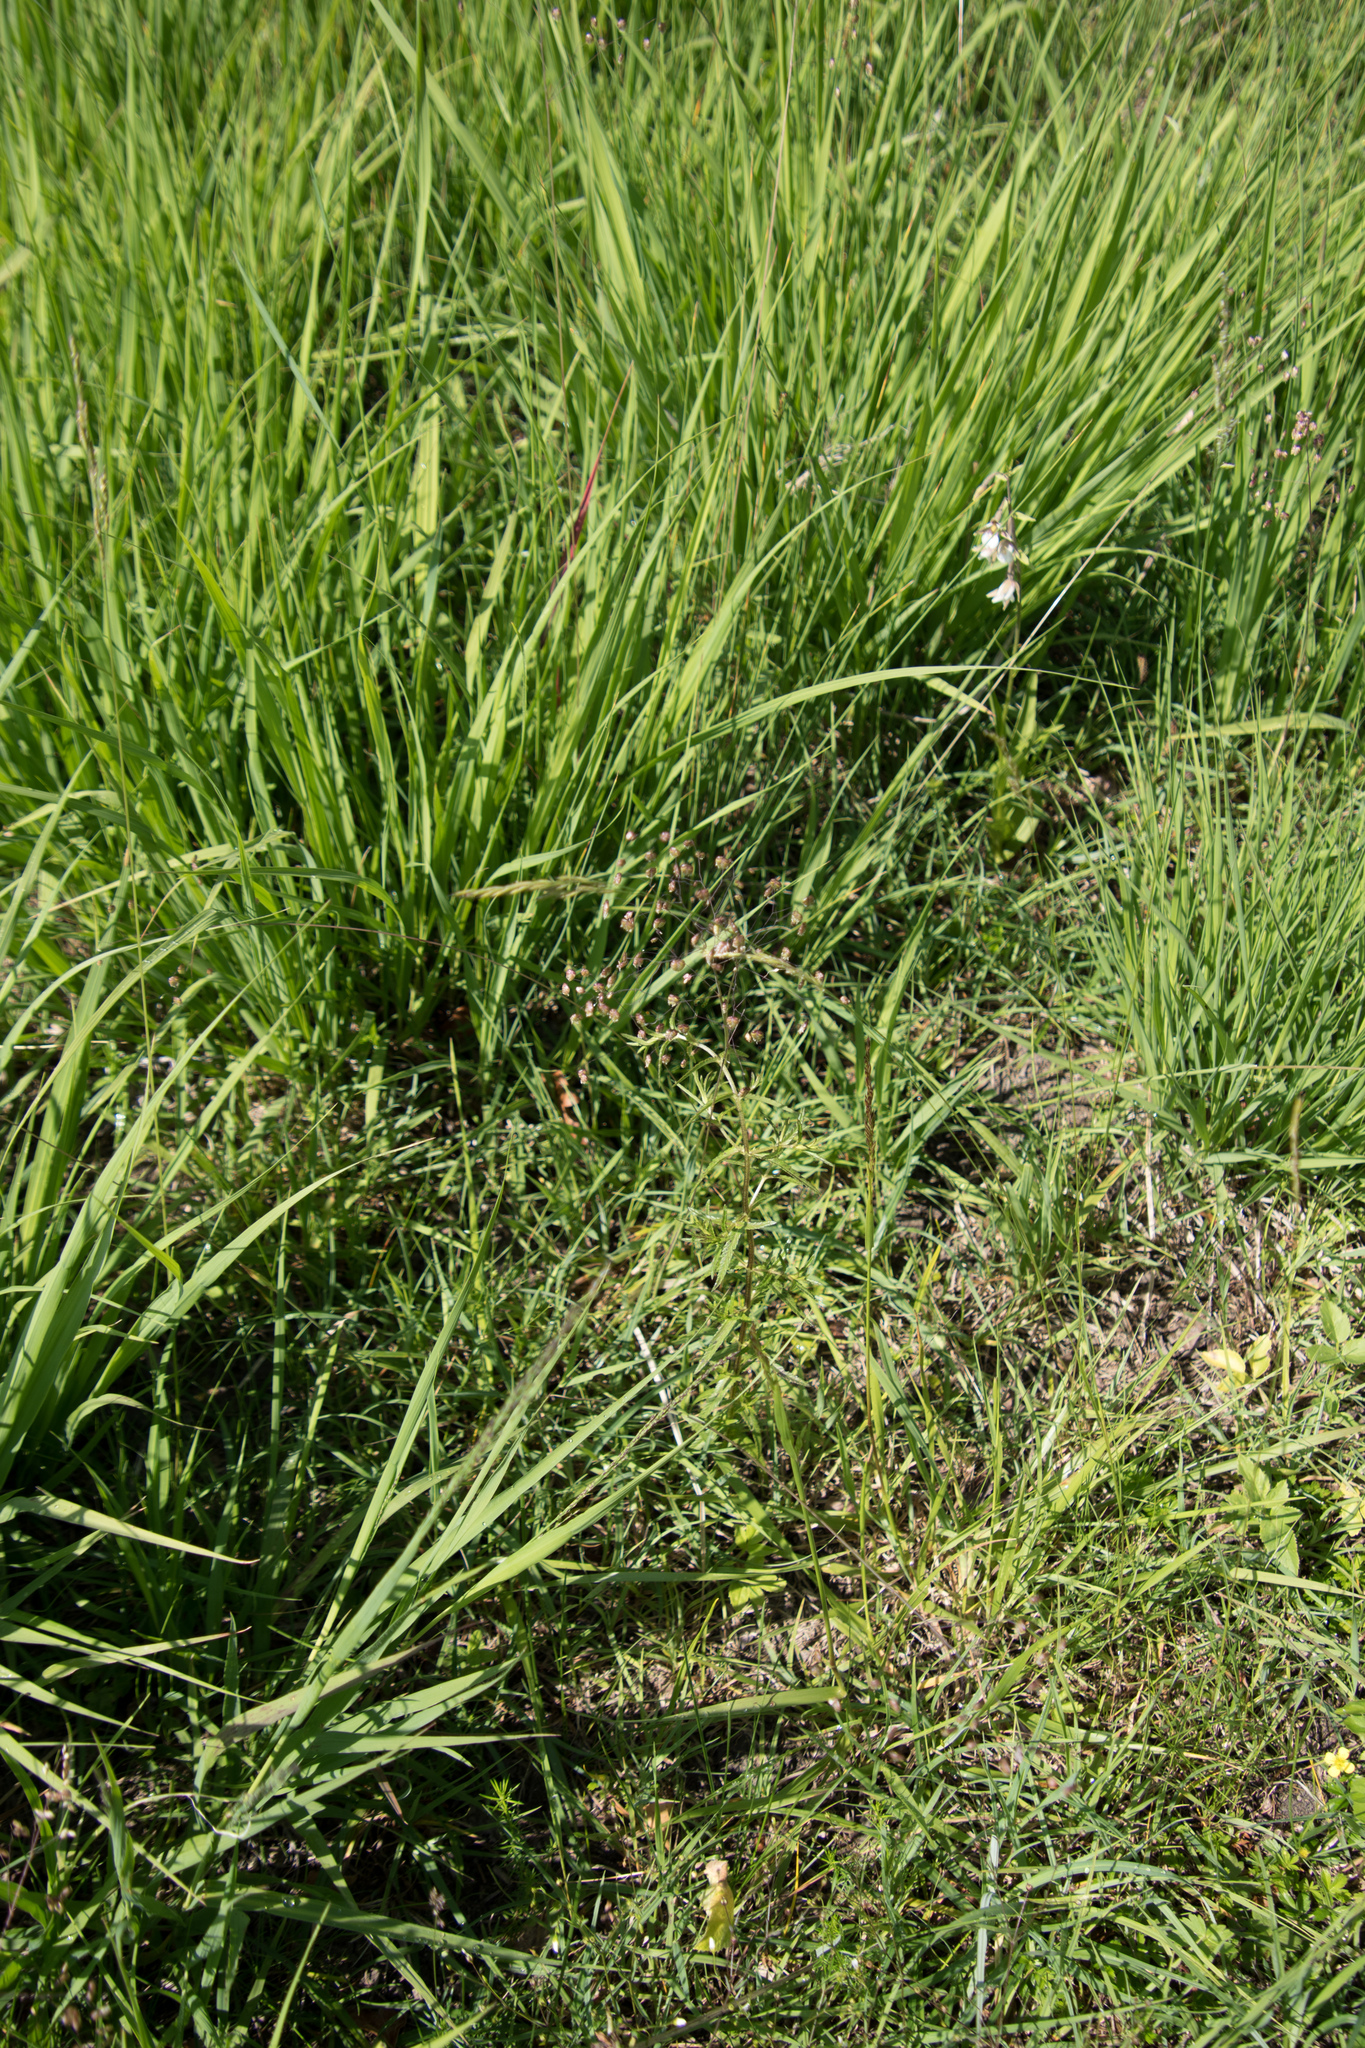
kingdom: Plantae
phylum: Tracheophyta
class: Liliopsida
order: Poales
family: Poaceae
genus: Briza
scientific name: Briza media
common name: Quaking grass
